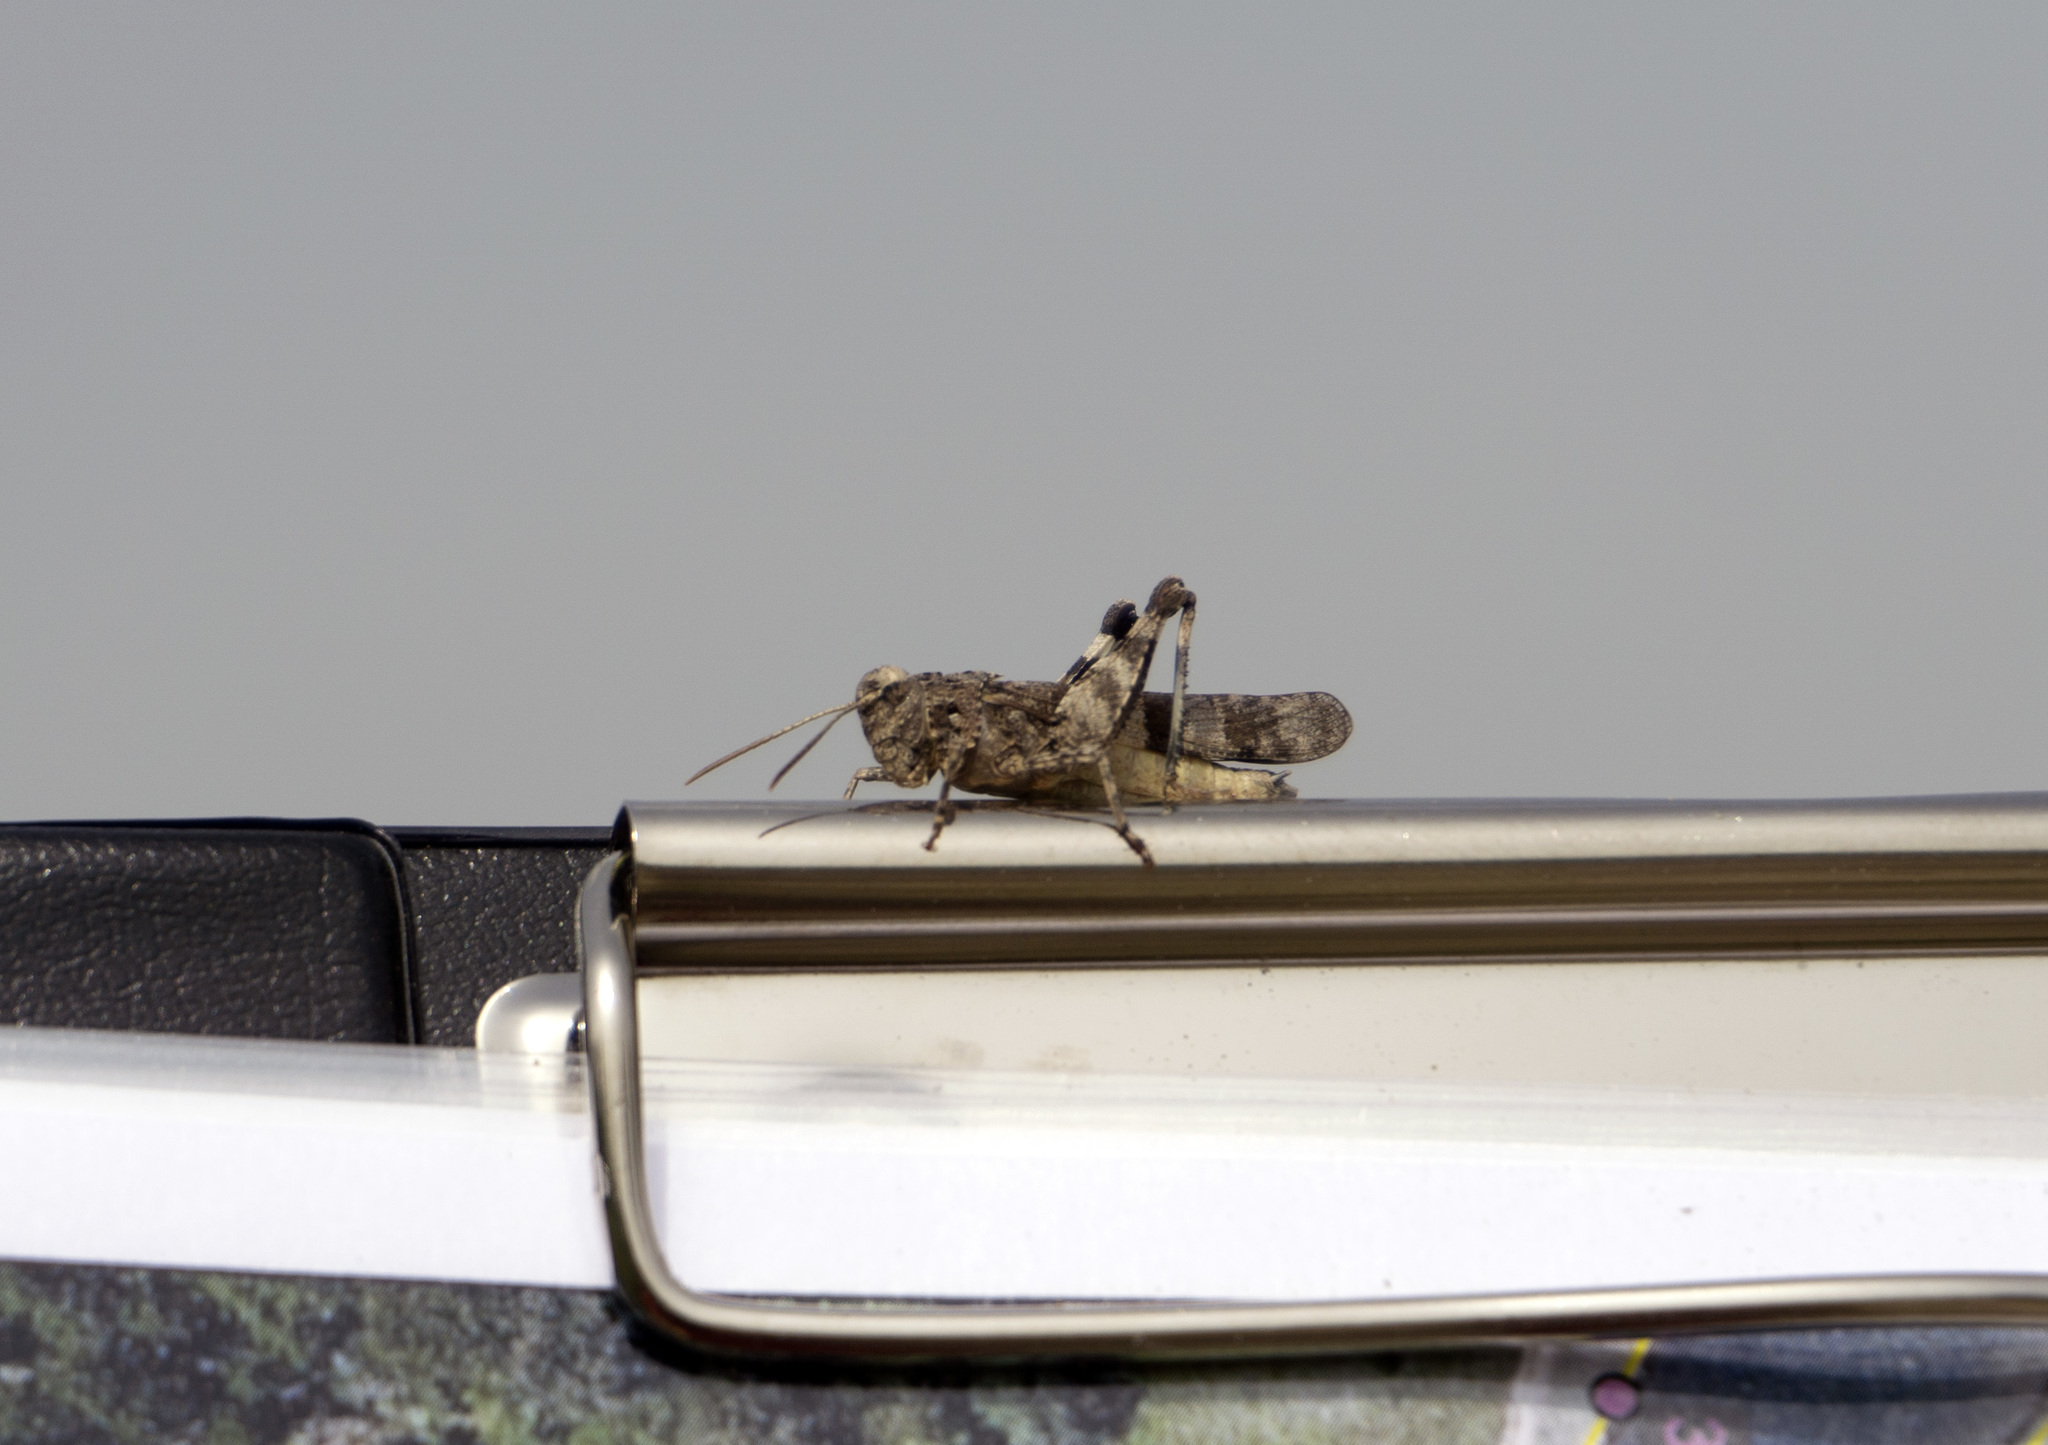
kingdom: Animalia
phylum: Arthropoda
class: Insecta
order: Orthoptera
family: Acrididae
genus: Oedipoda
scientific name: Oedipoda caerulescens
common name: Blue-winged grasshopper
